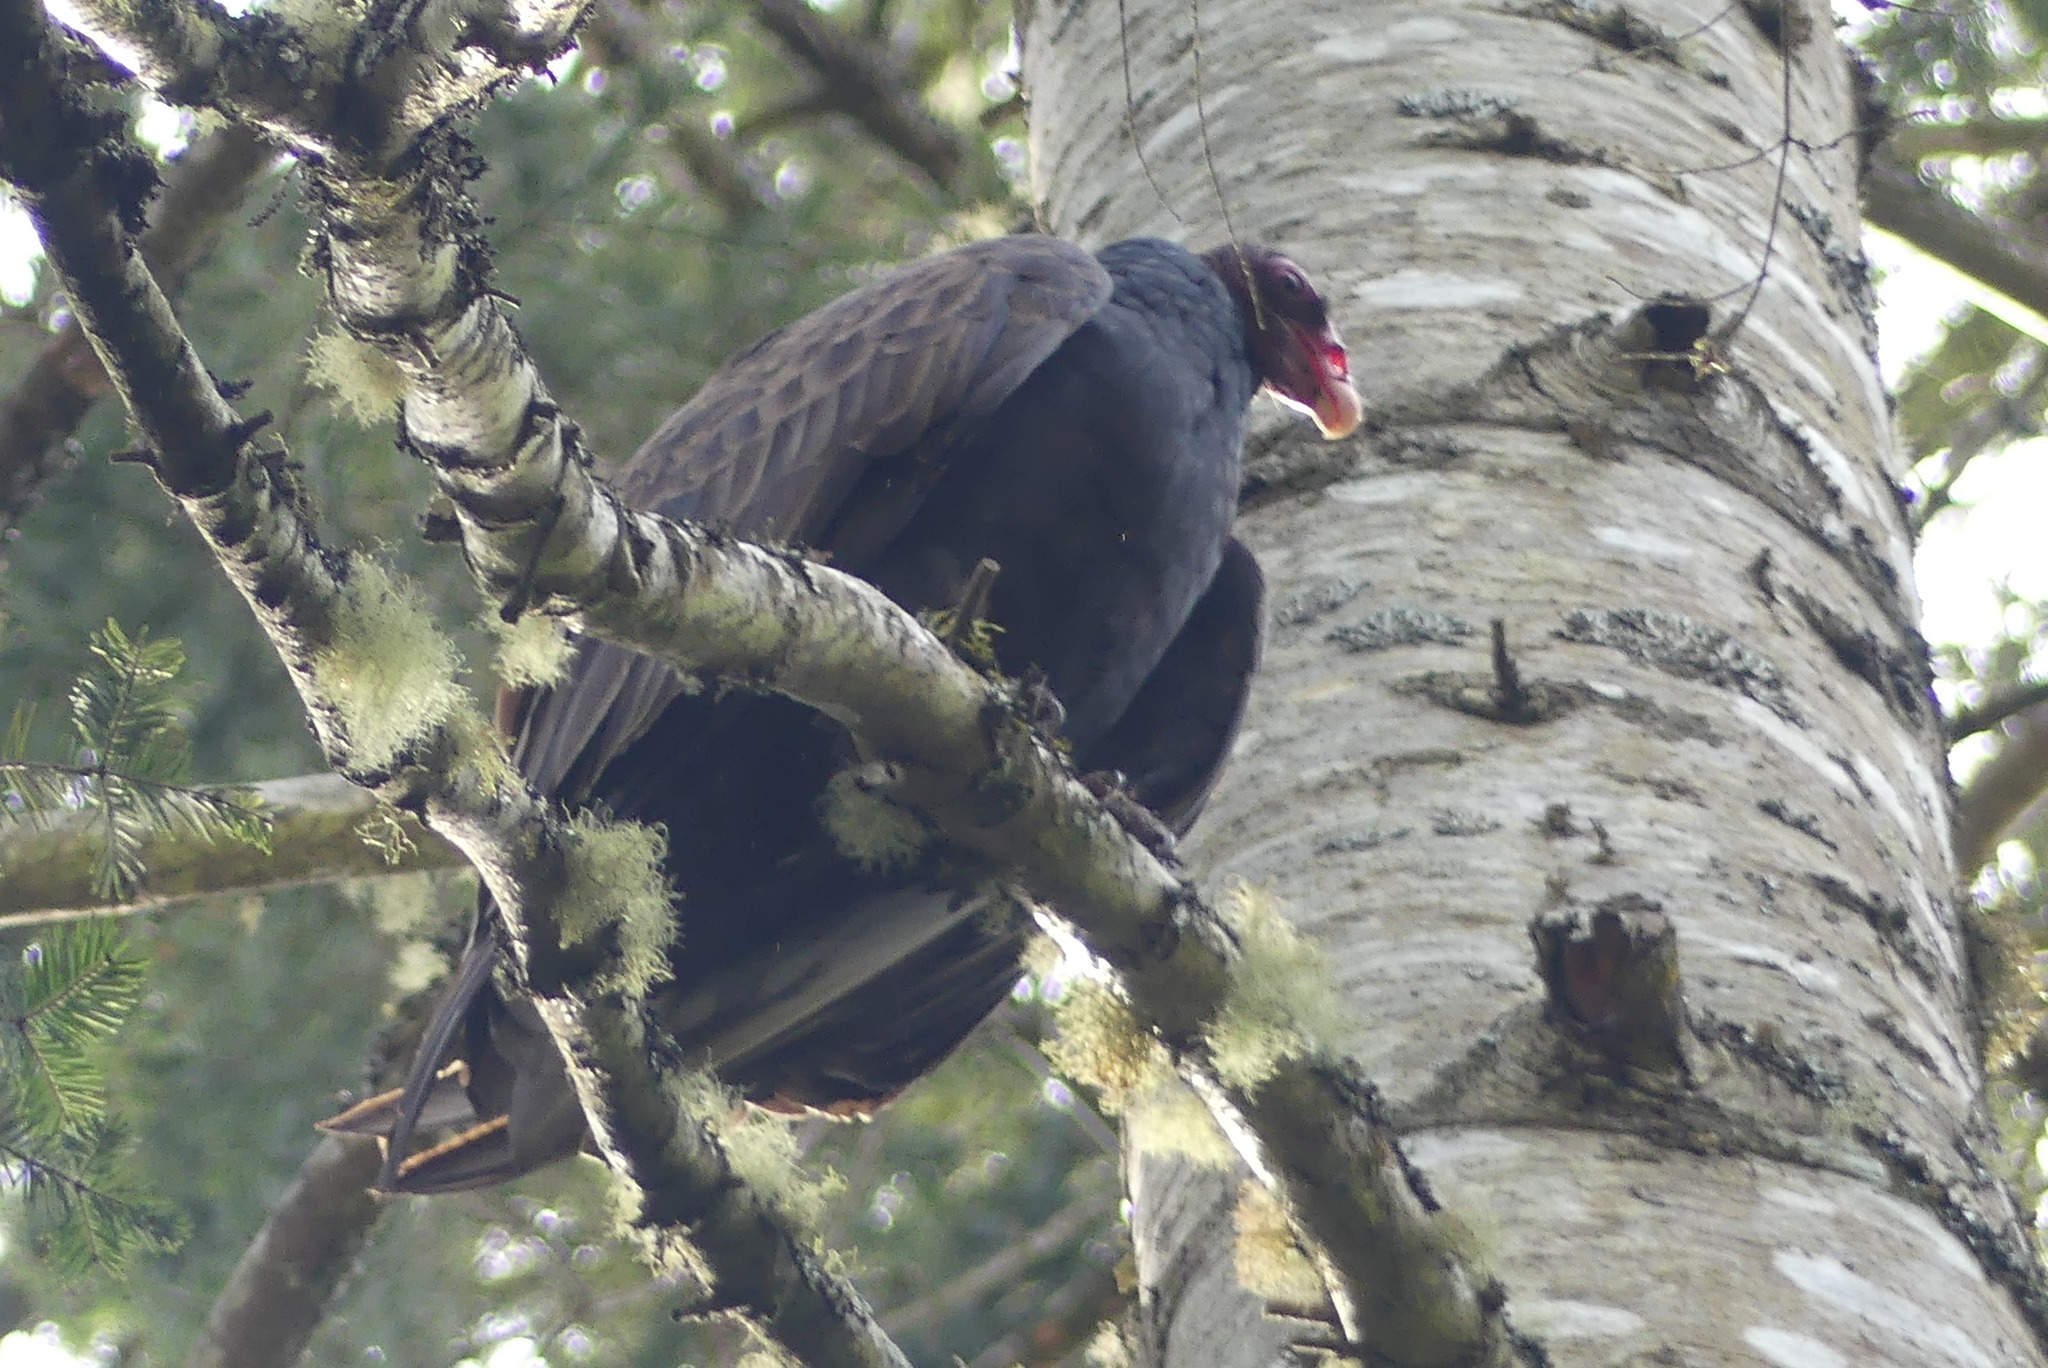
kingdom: Animalia
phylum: Chordata
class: Aves
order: Accipitriformes
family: Cathartidae
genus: Cathartes
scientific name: Cathartes aura
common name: Turkey vulture
